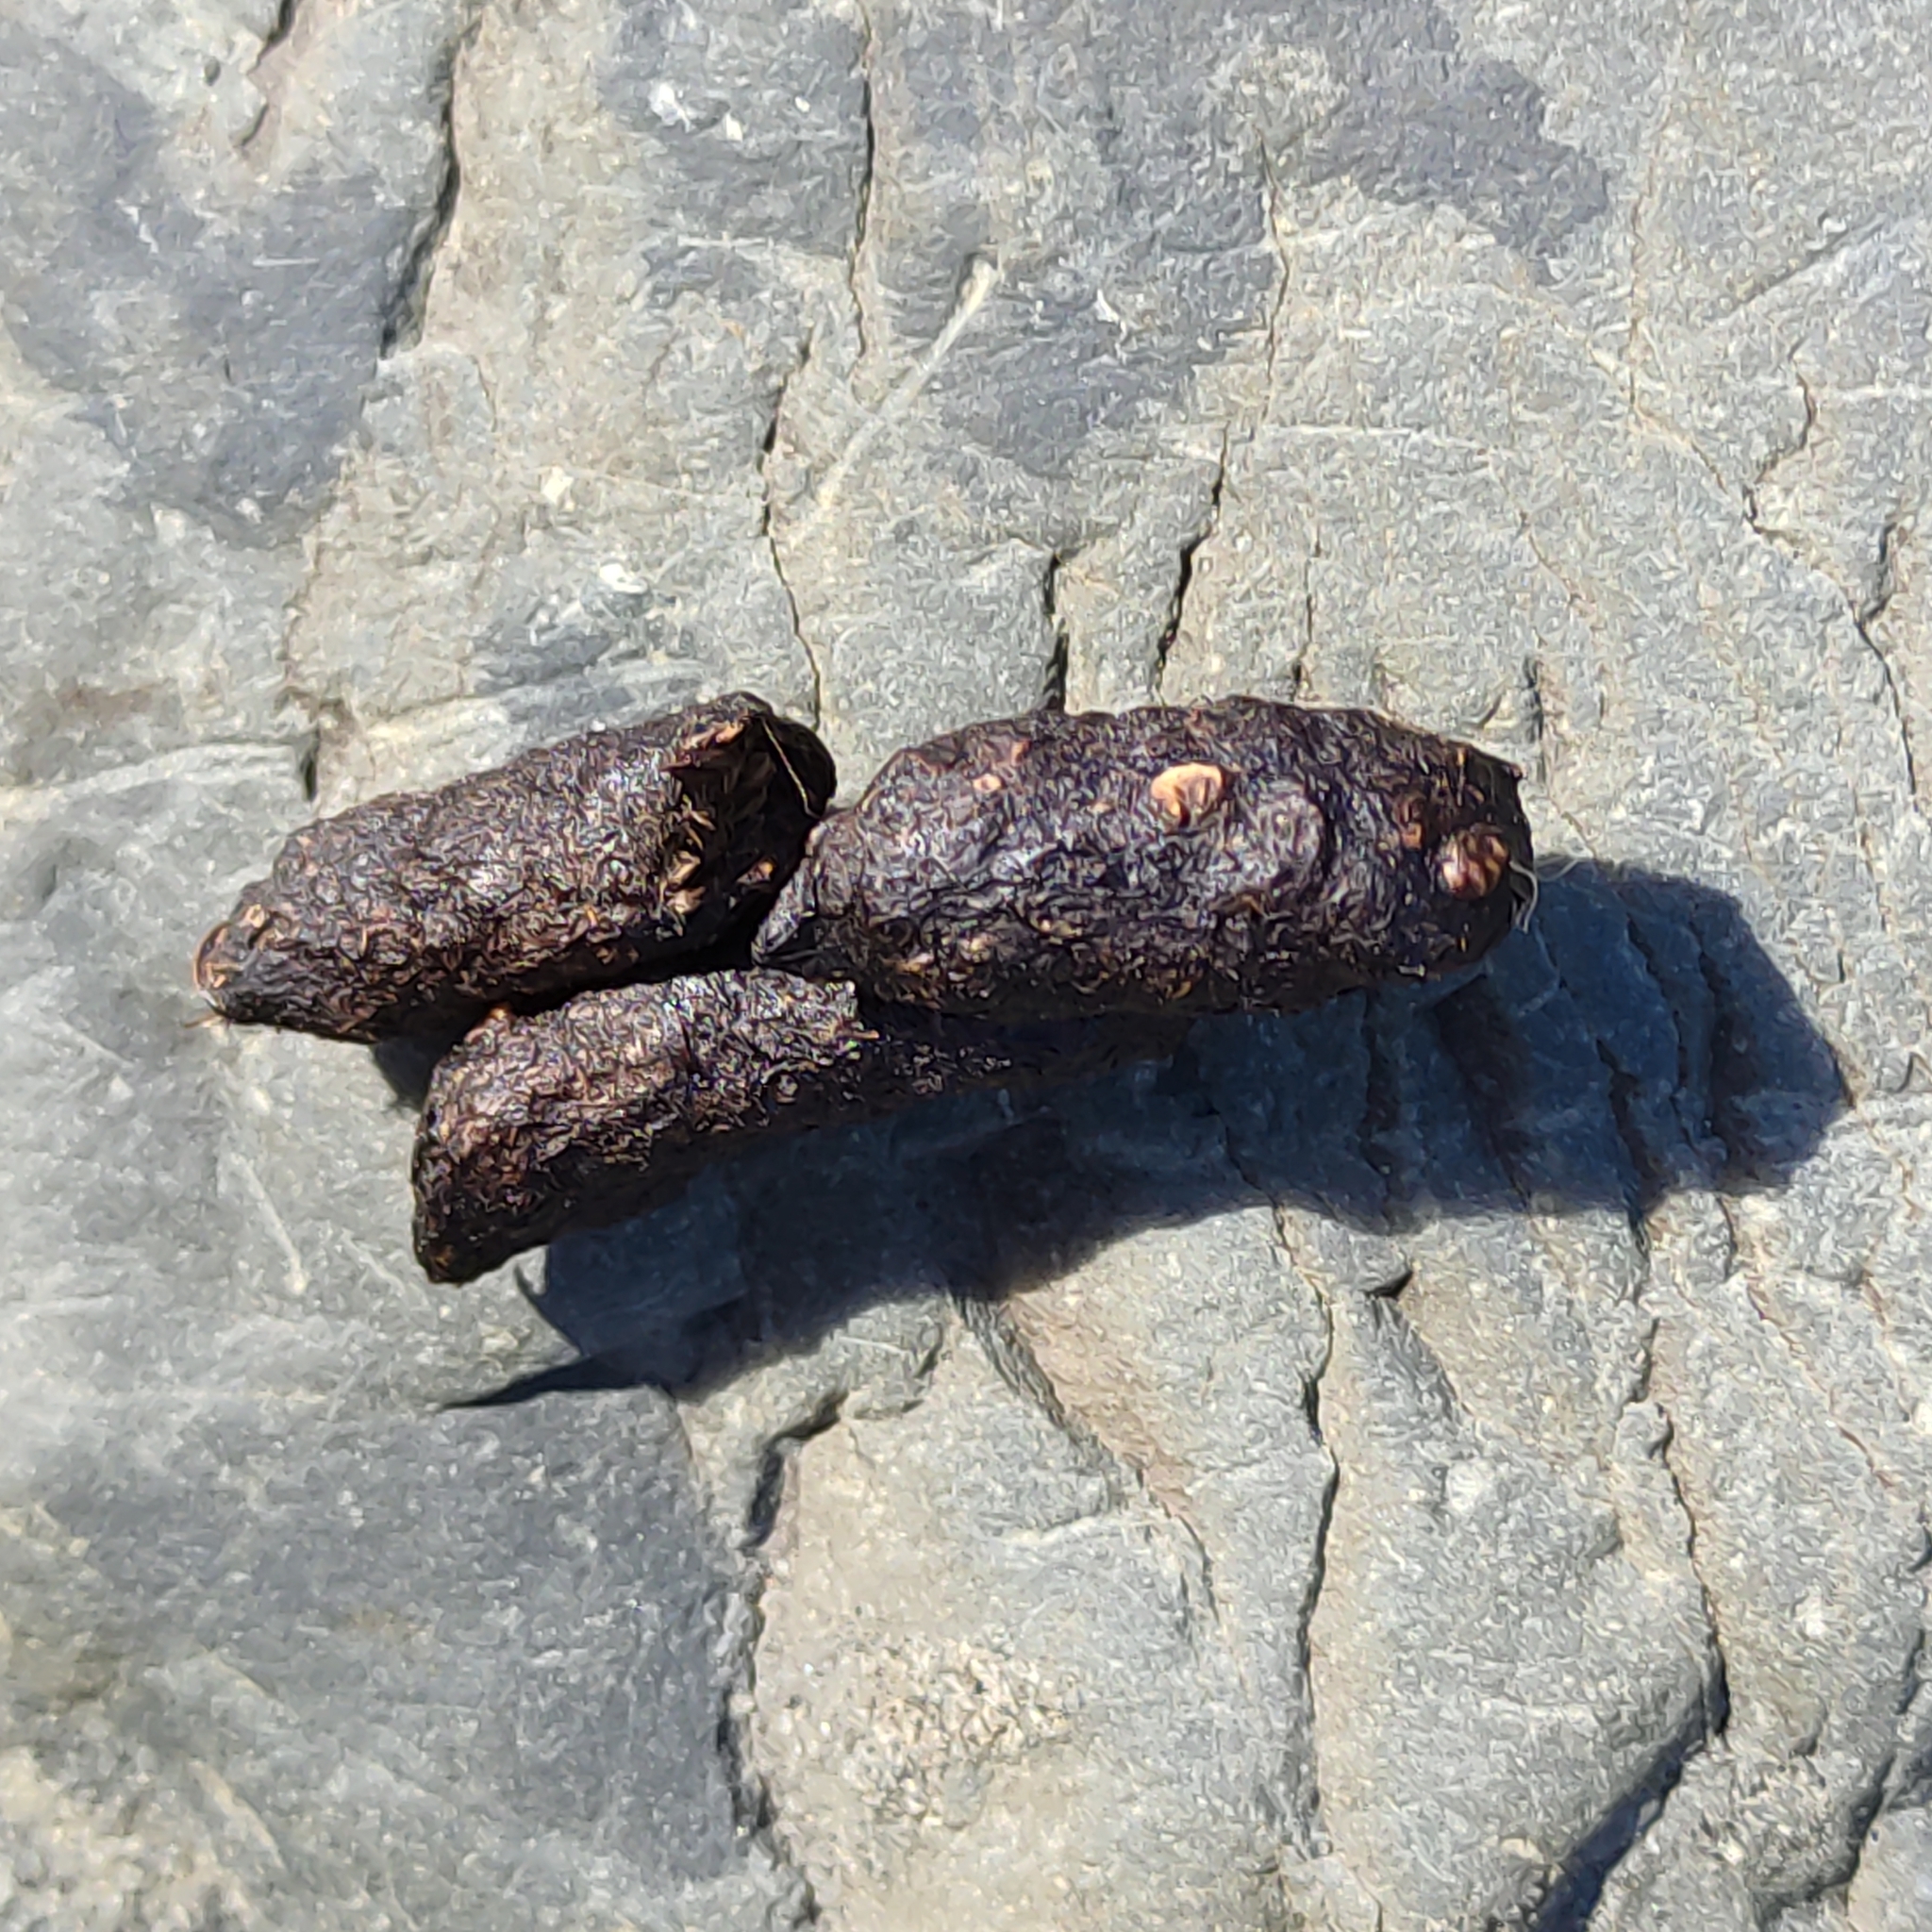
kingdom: Animalia
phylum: Chordata
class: Mammalia
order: Diprotodontia
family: Phalangeridae
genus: Trichosurus
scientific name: Trichosurus vulpecula
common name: Common brushtail
